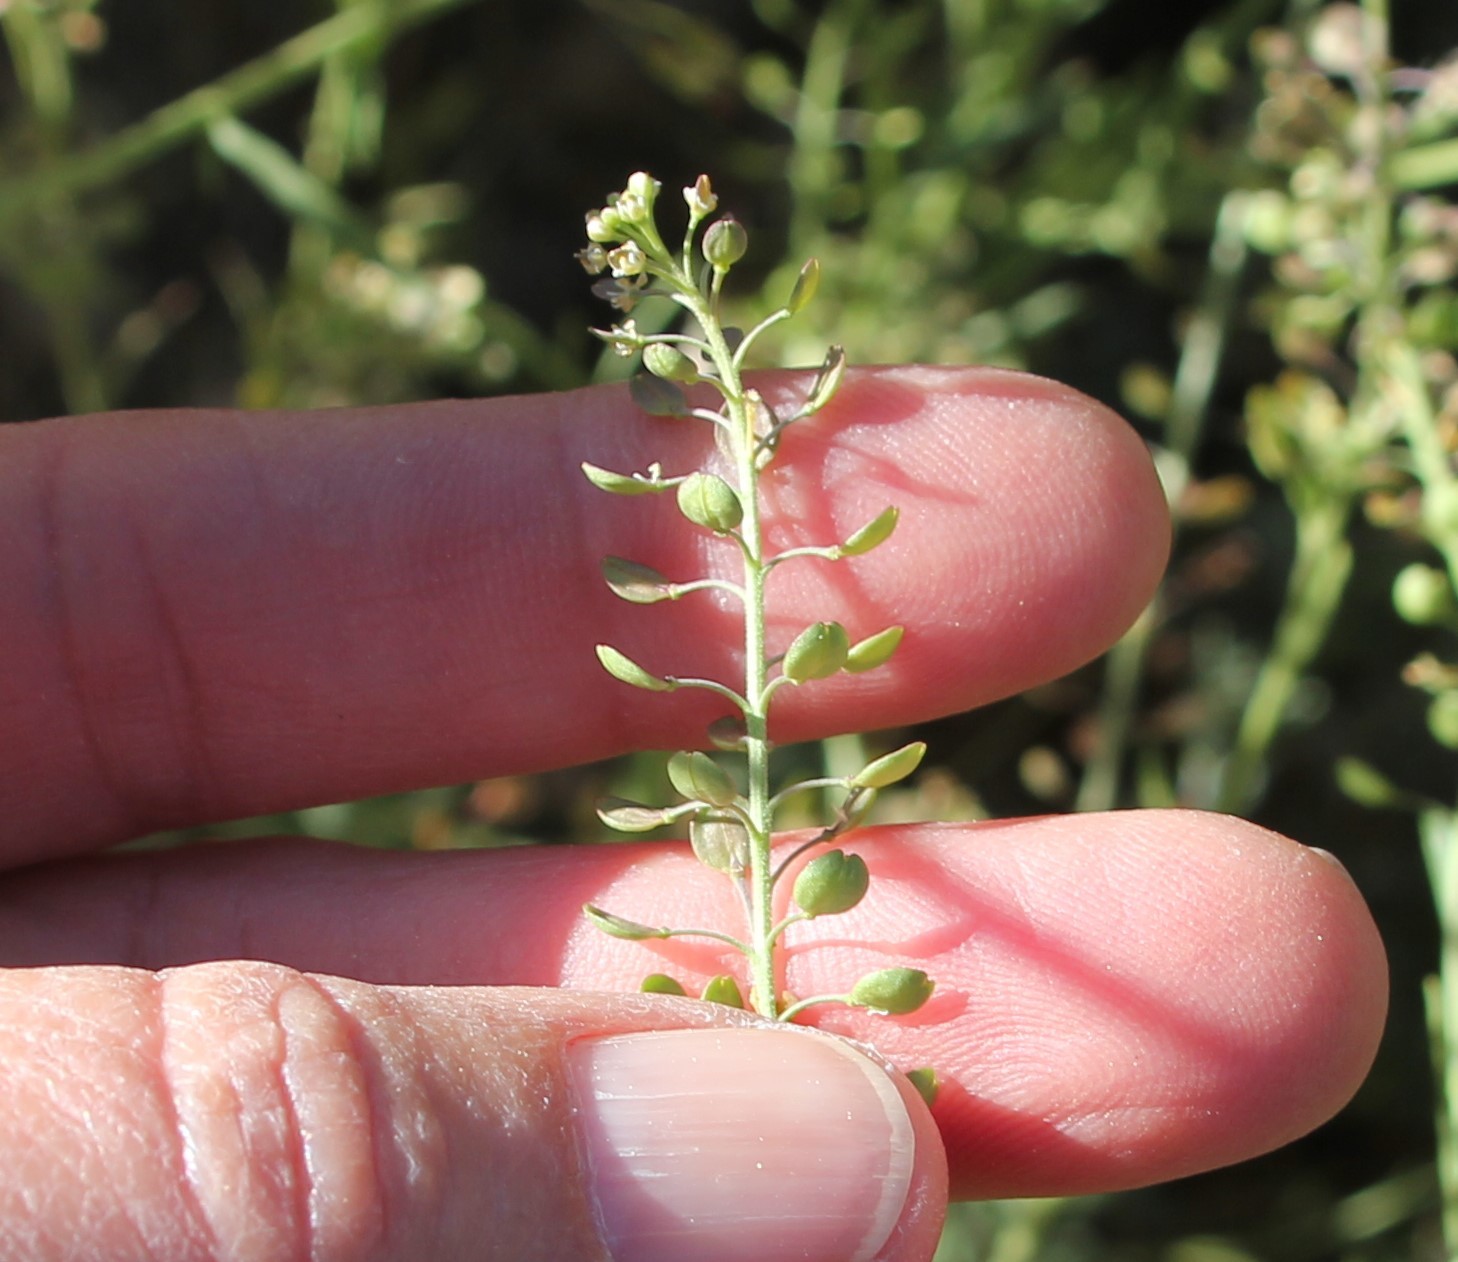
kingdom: Plantae
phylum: Tracheophyta
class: Magnoliopsida
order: Brassicales
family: Brassicaceae
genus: Lepidium
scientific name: Lepidium nitidum
